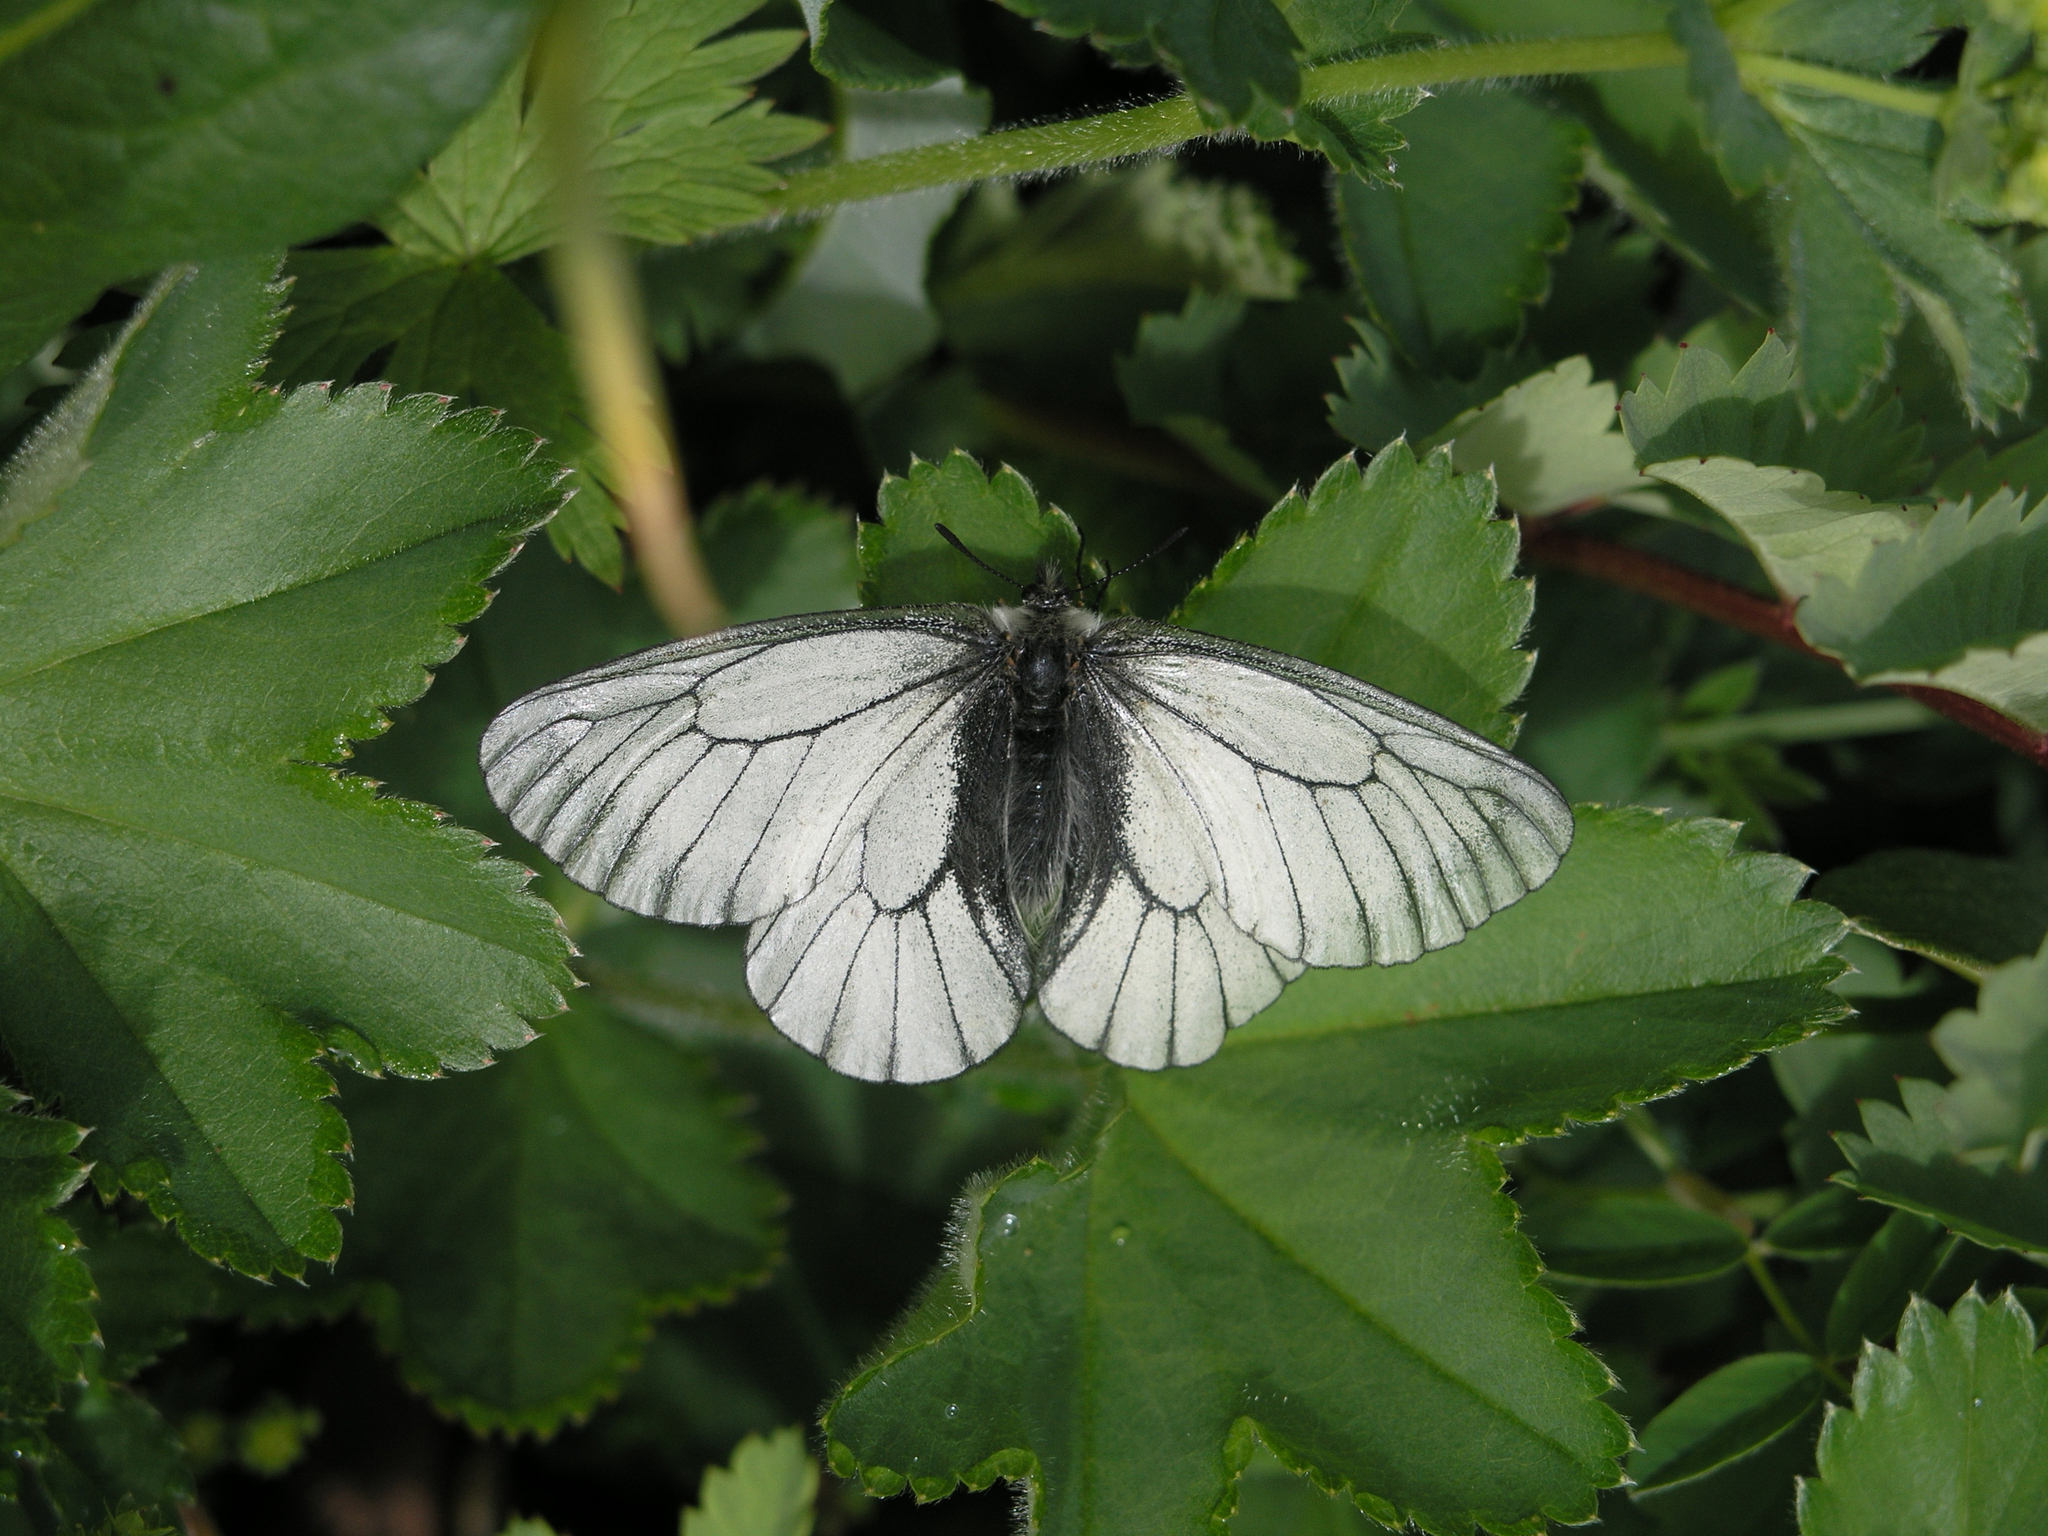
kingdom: Animalia
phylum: Arthropoda
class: Insecta
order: Lepidoptera
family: Papilionidae
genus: Parnassius
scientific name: Parnassius stubbendorfii
